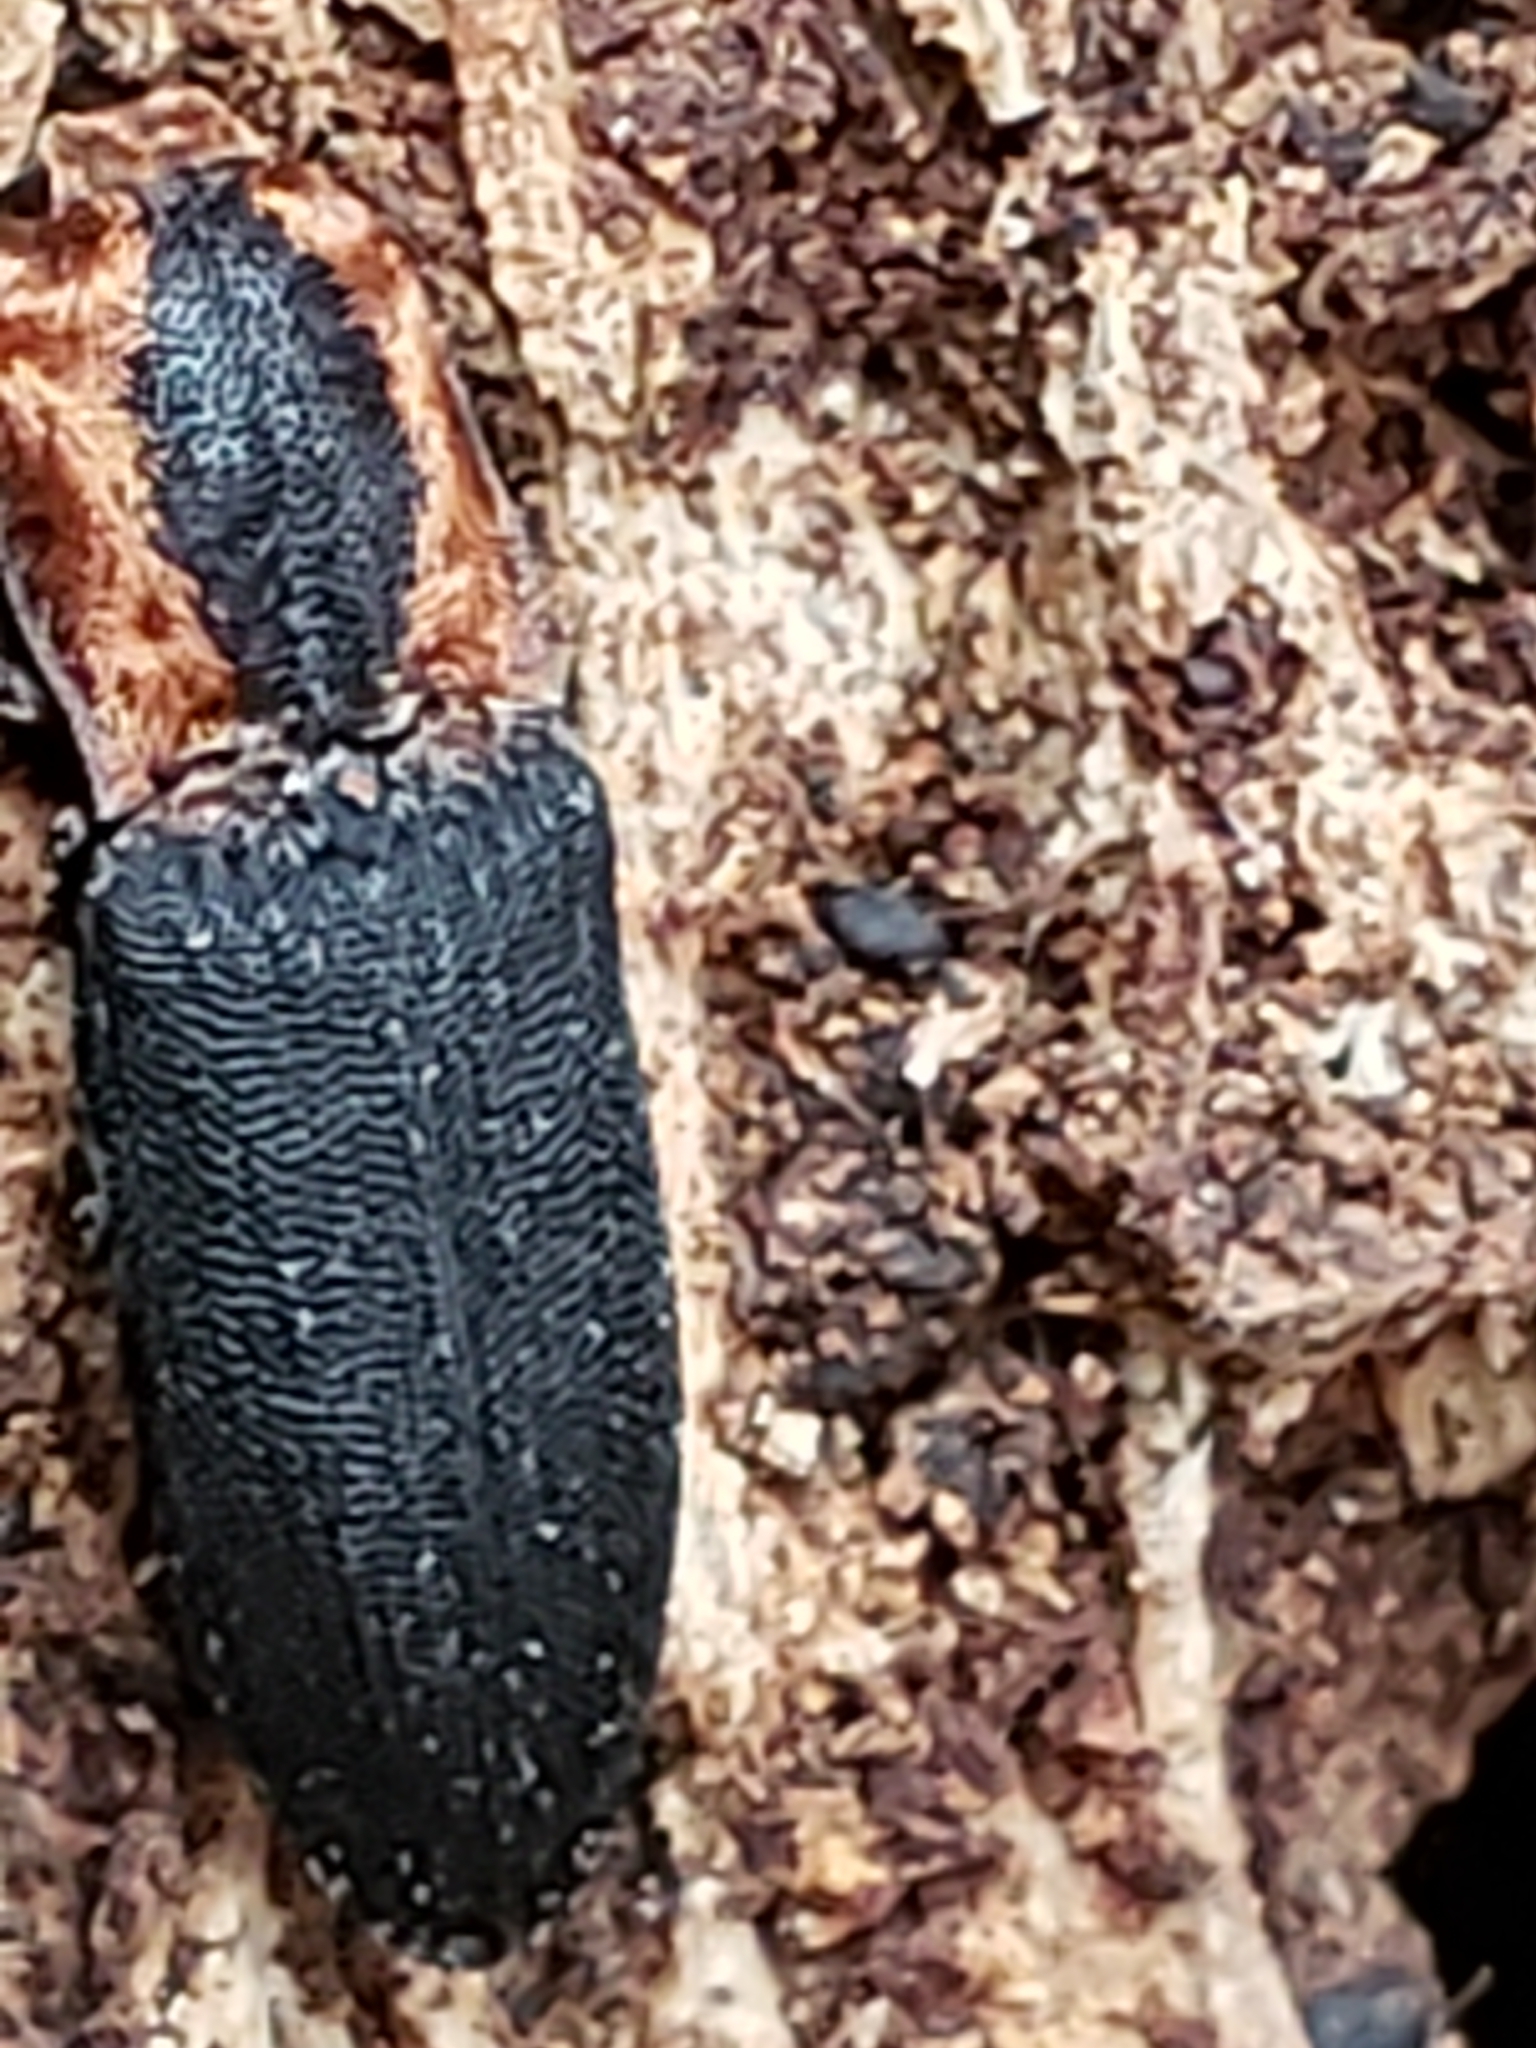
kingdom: Animalia
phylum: Arthropoda
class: Insecta
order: Coleoptera
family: Elateridae
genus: Lacon
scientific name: Lacon discoideus
